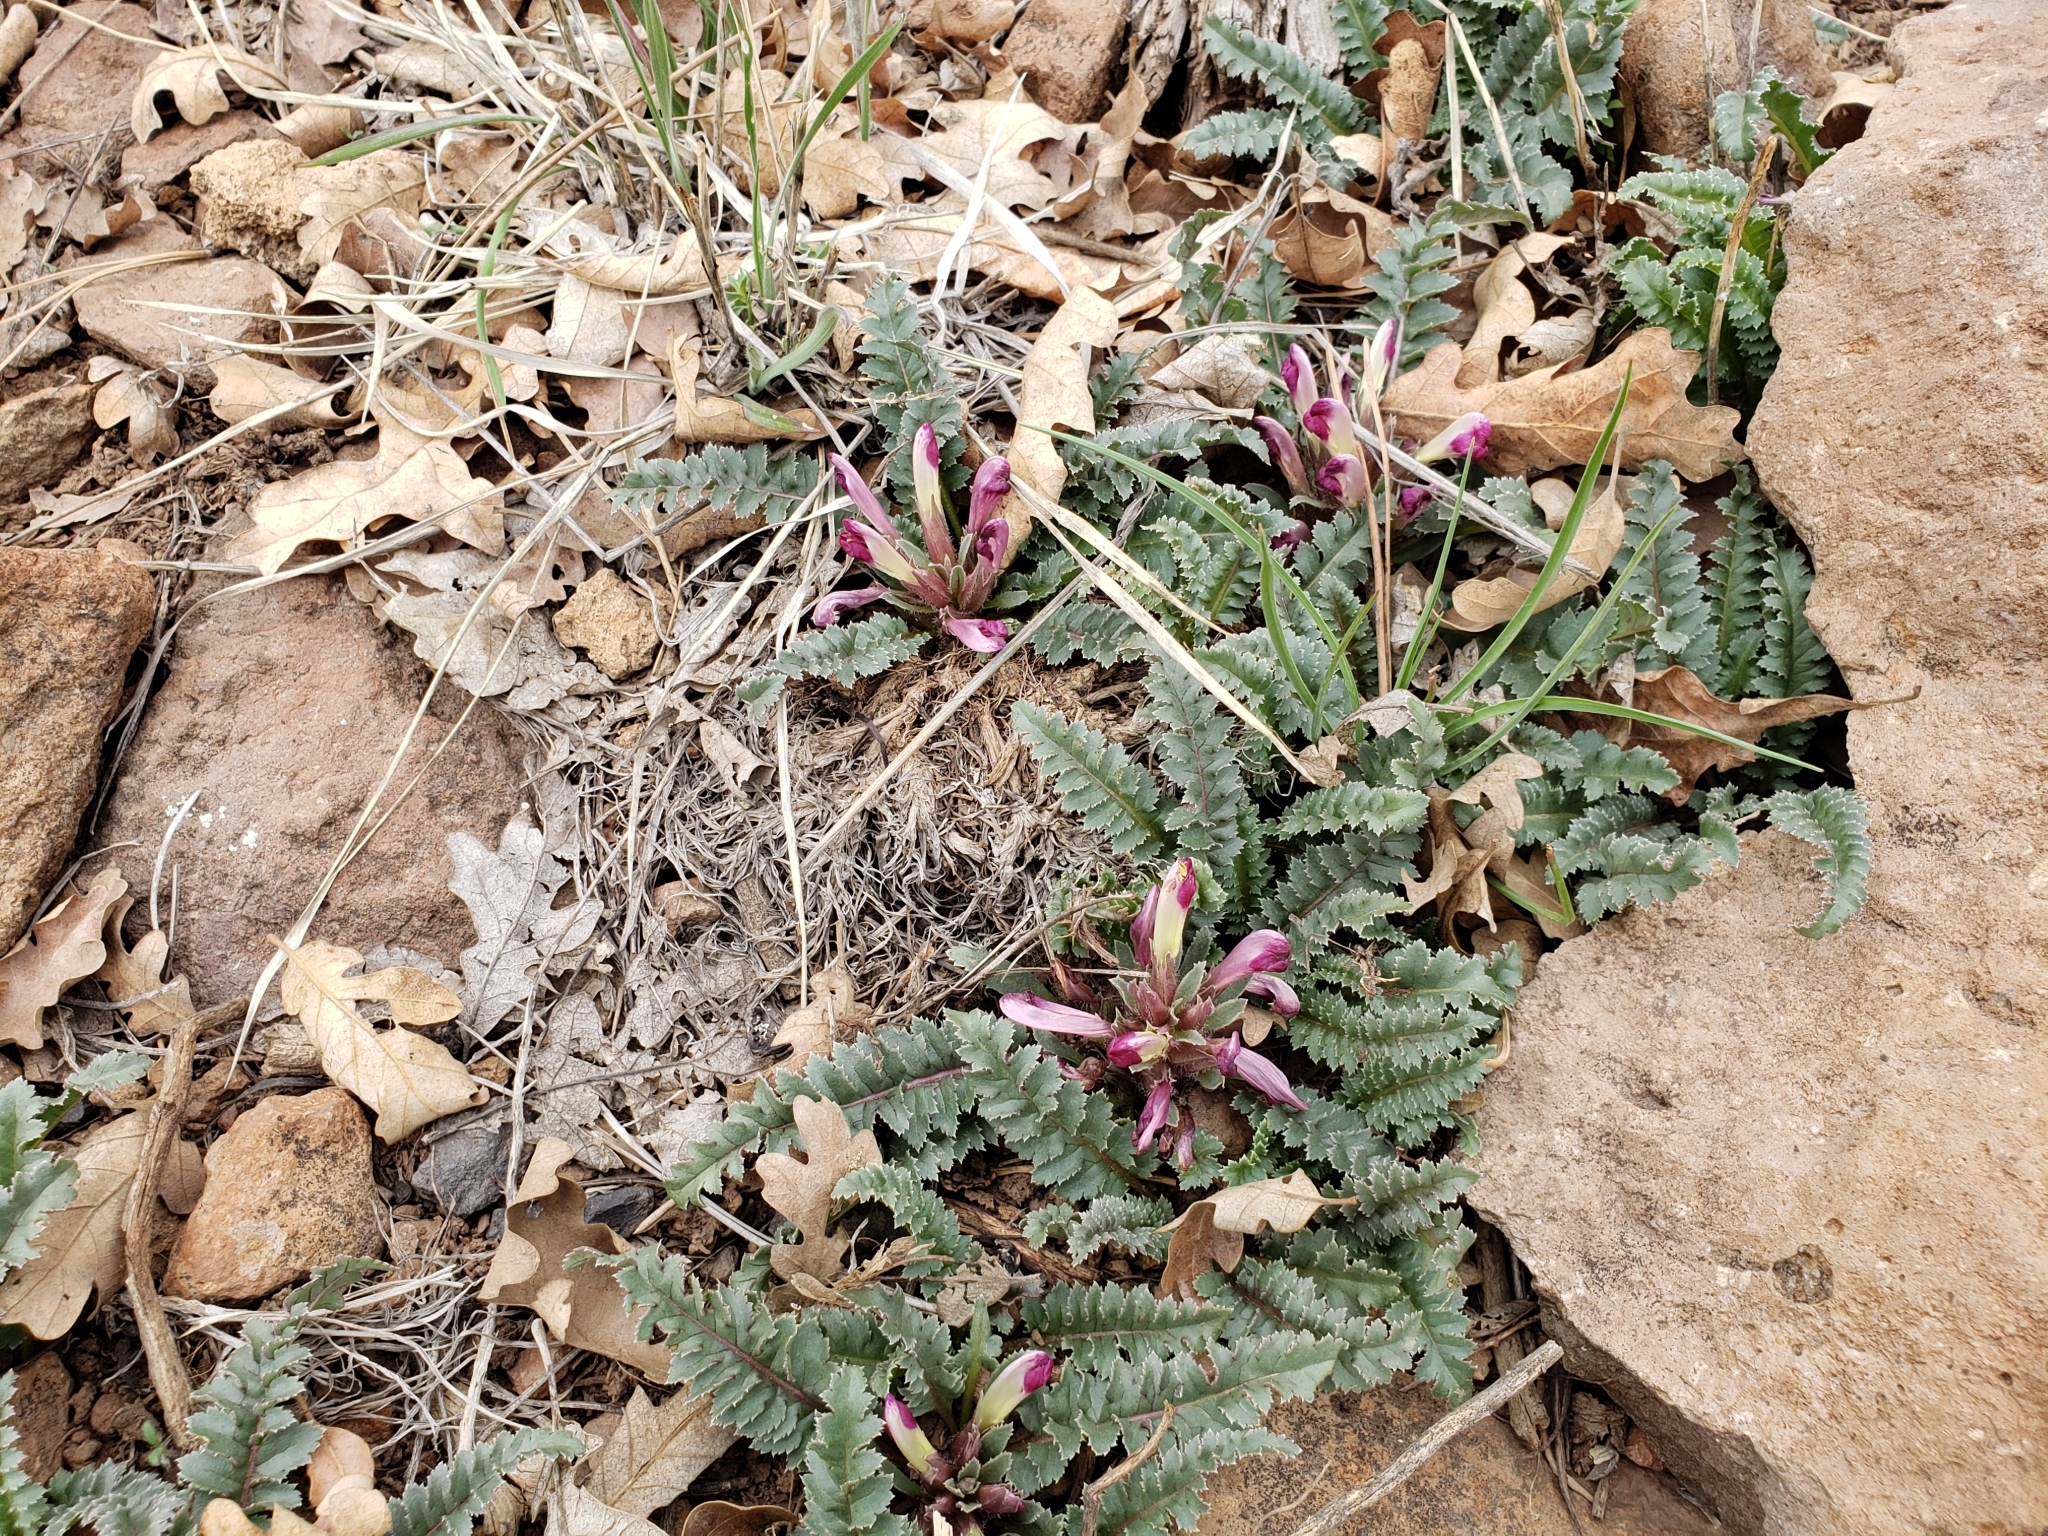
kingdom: Plantae
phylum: Tracheophyta
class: Magnoliopsida
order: Lamiales
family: Orobanchaceae
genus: Pedicularis
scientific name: Pedicularis centranthera
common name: Dwarf lousewort
